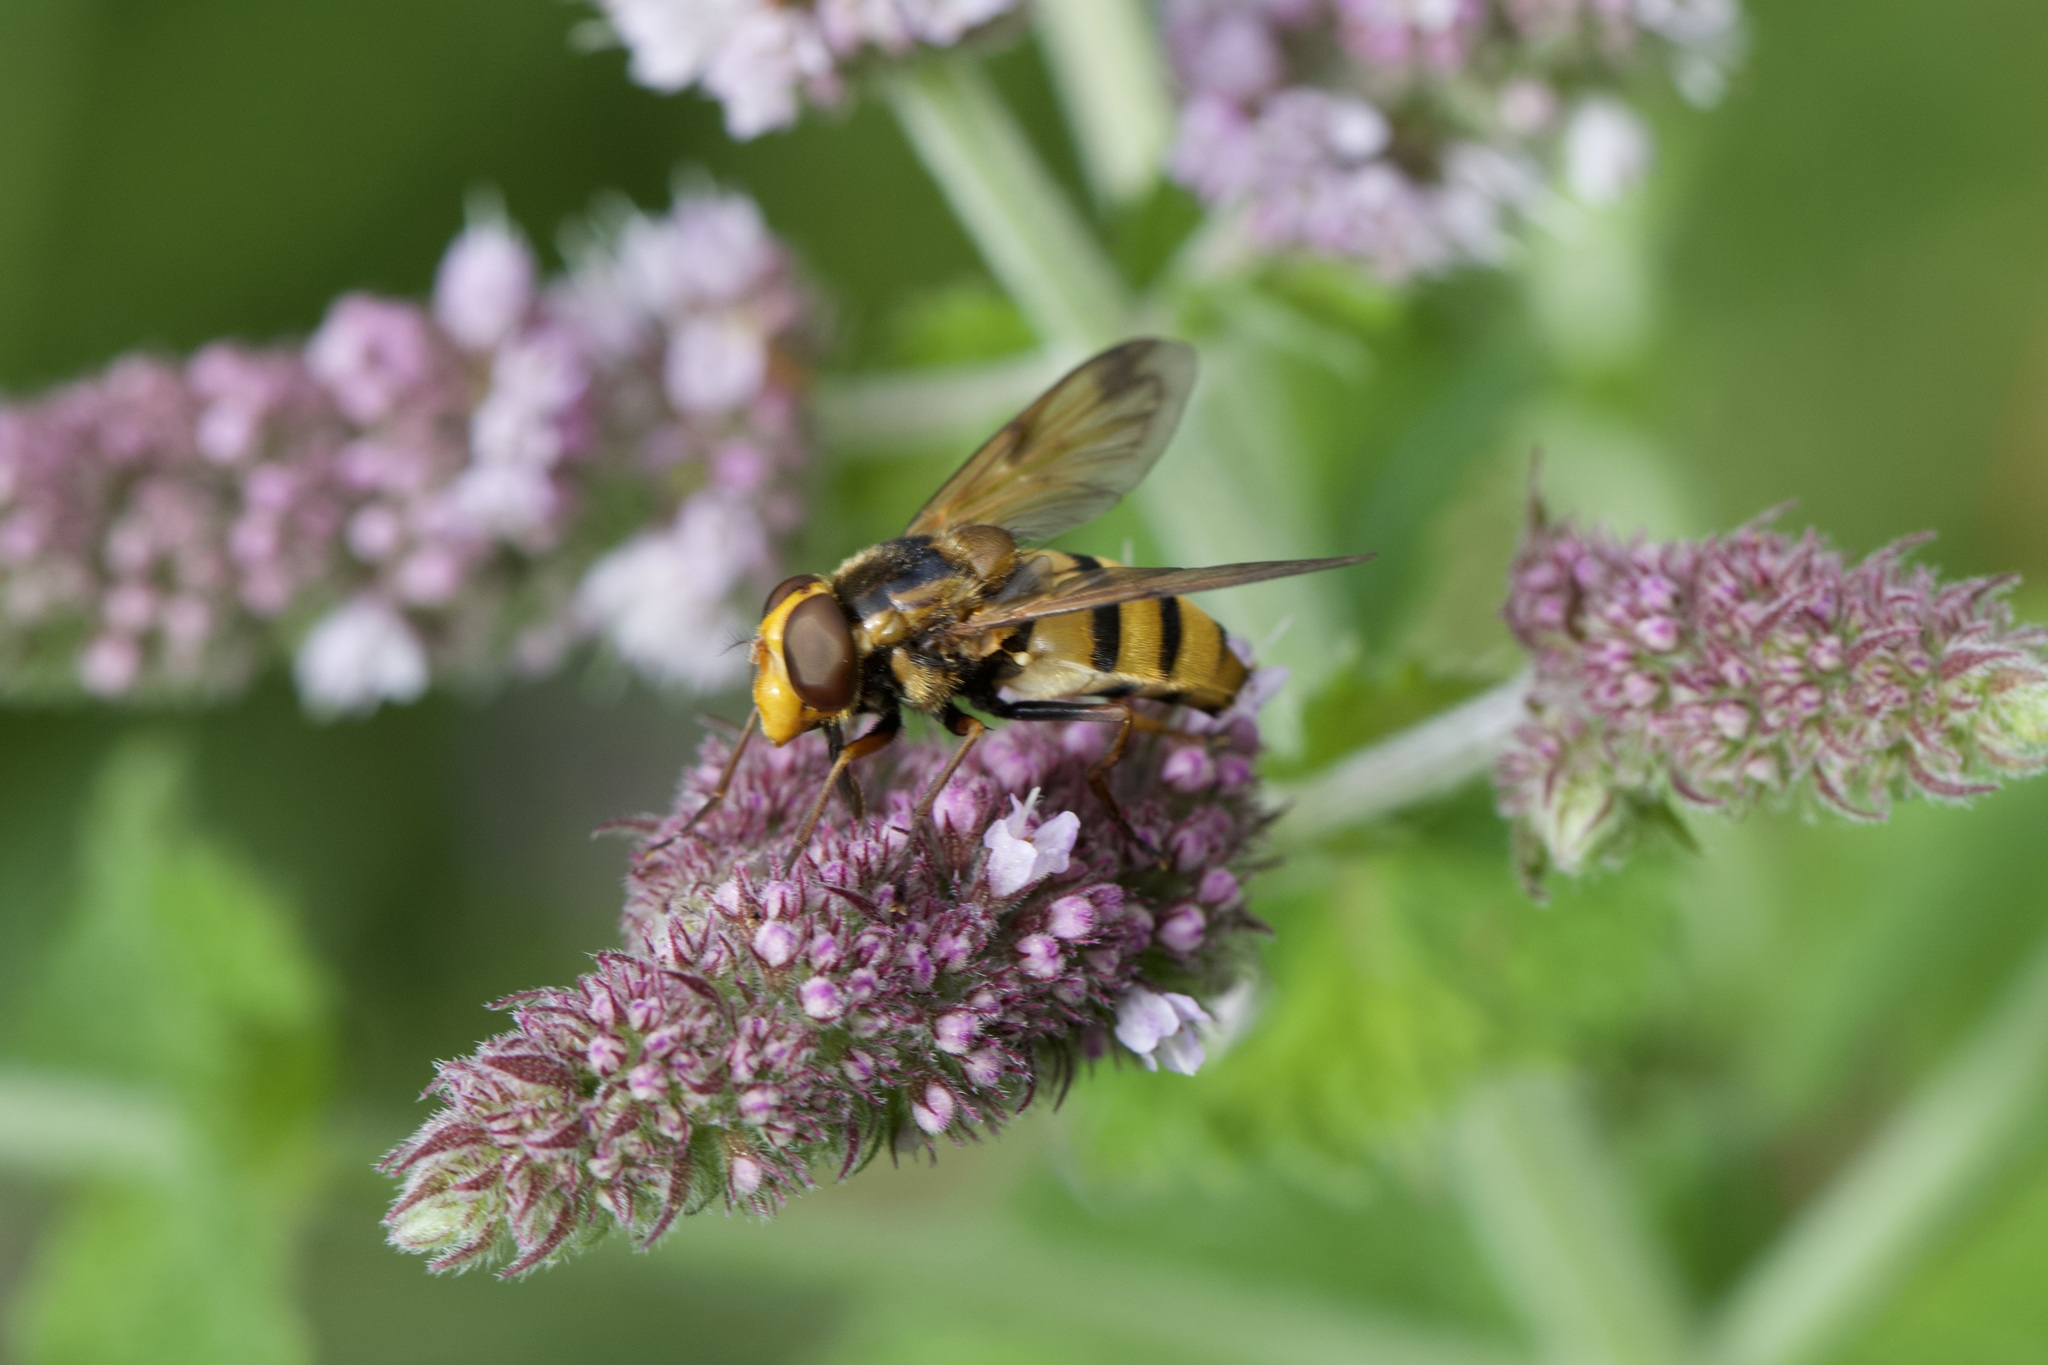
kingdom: Animalia
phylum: Arthropoda
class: Insecta
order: Diptera
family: Syrphidae
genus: Volucella
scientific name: Volucella inanis
